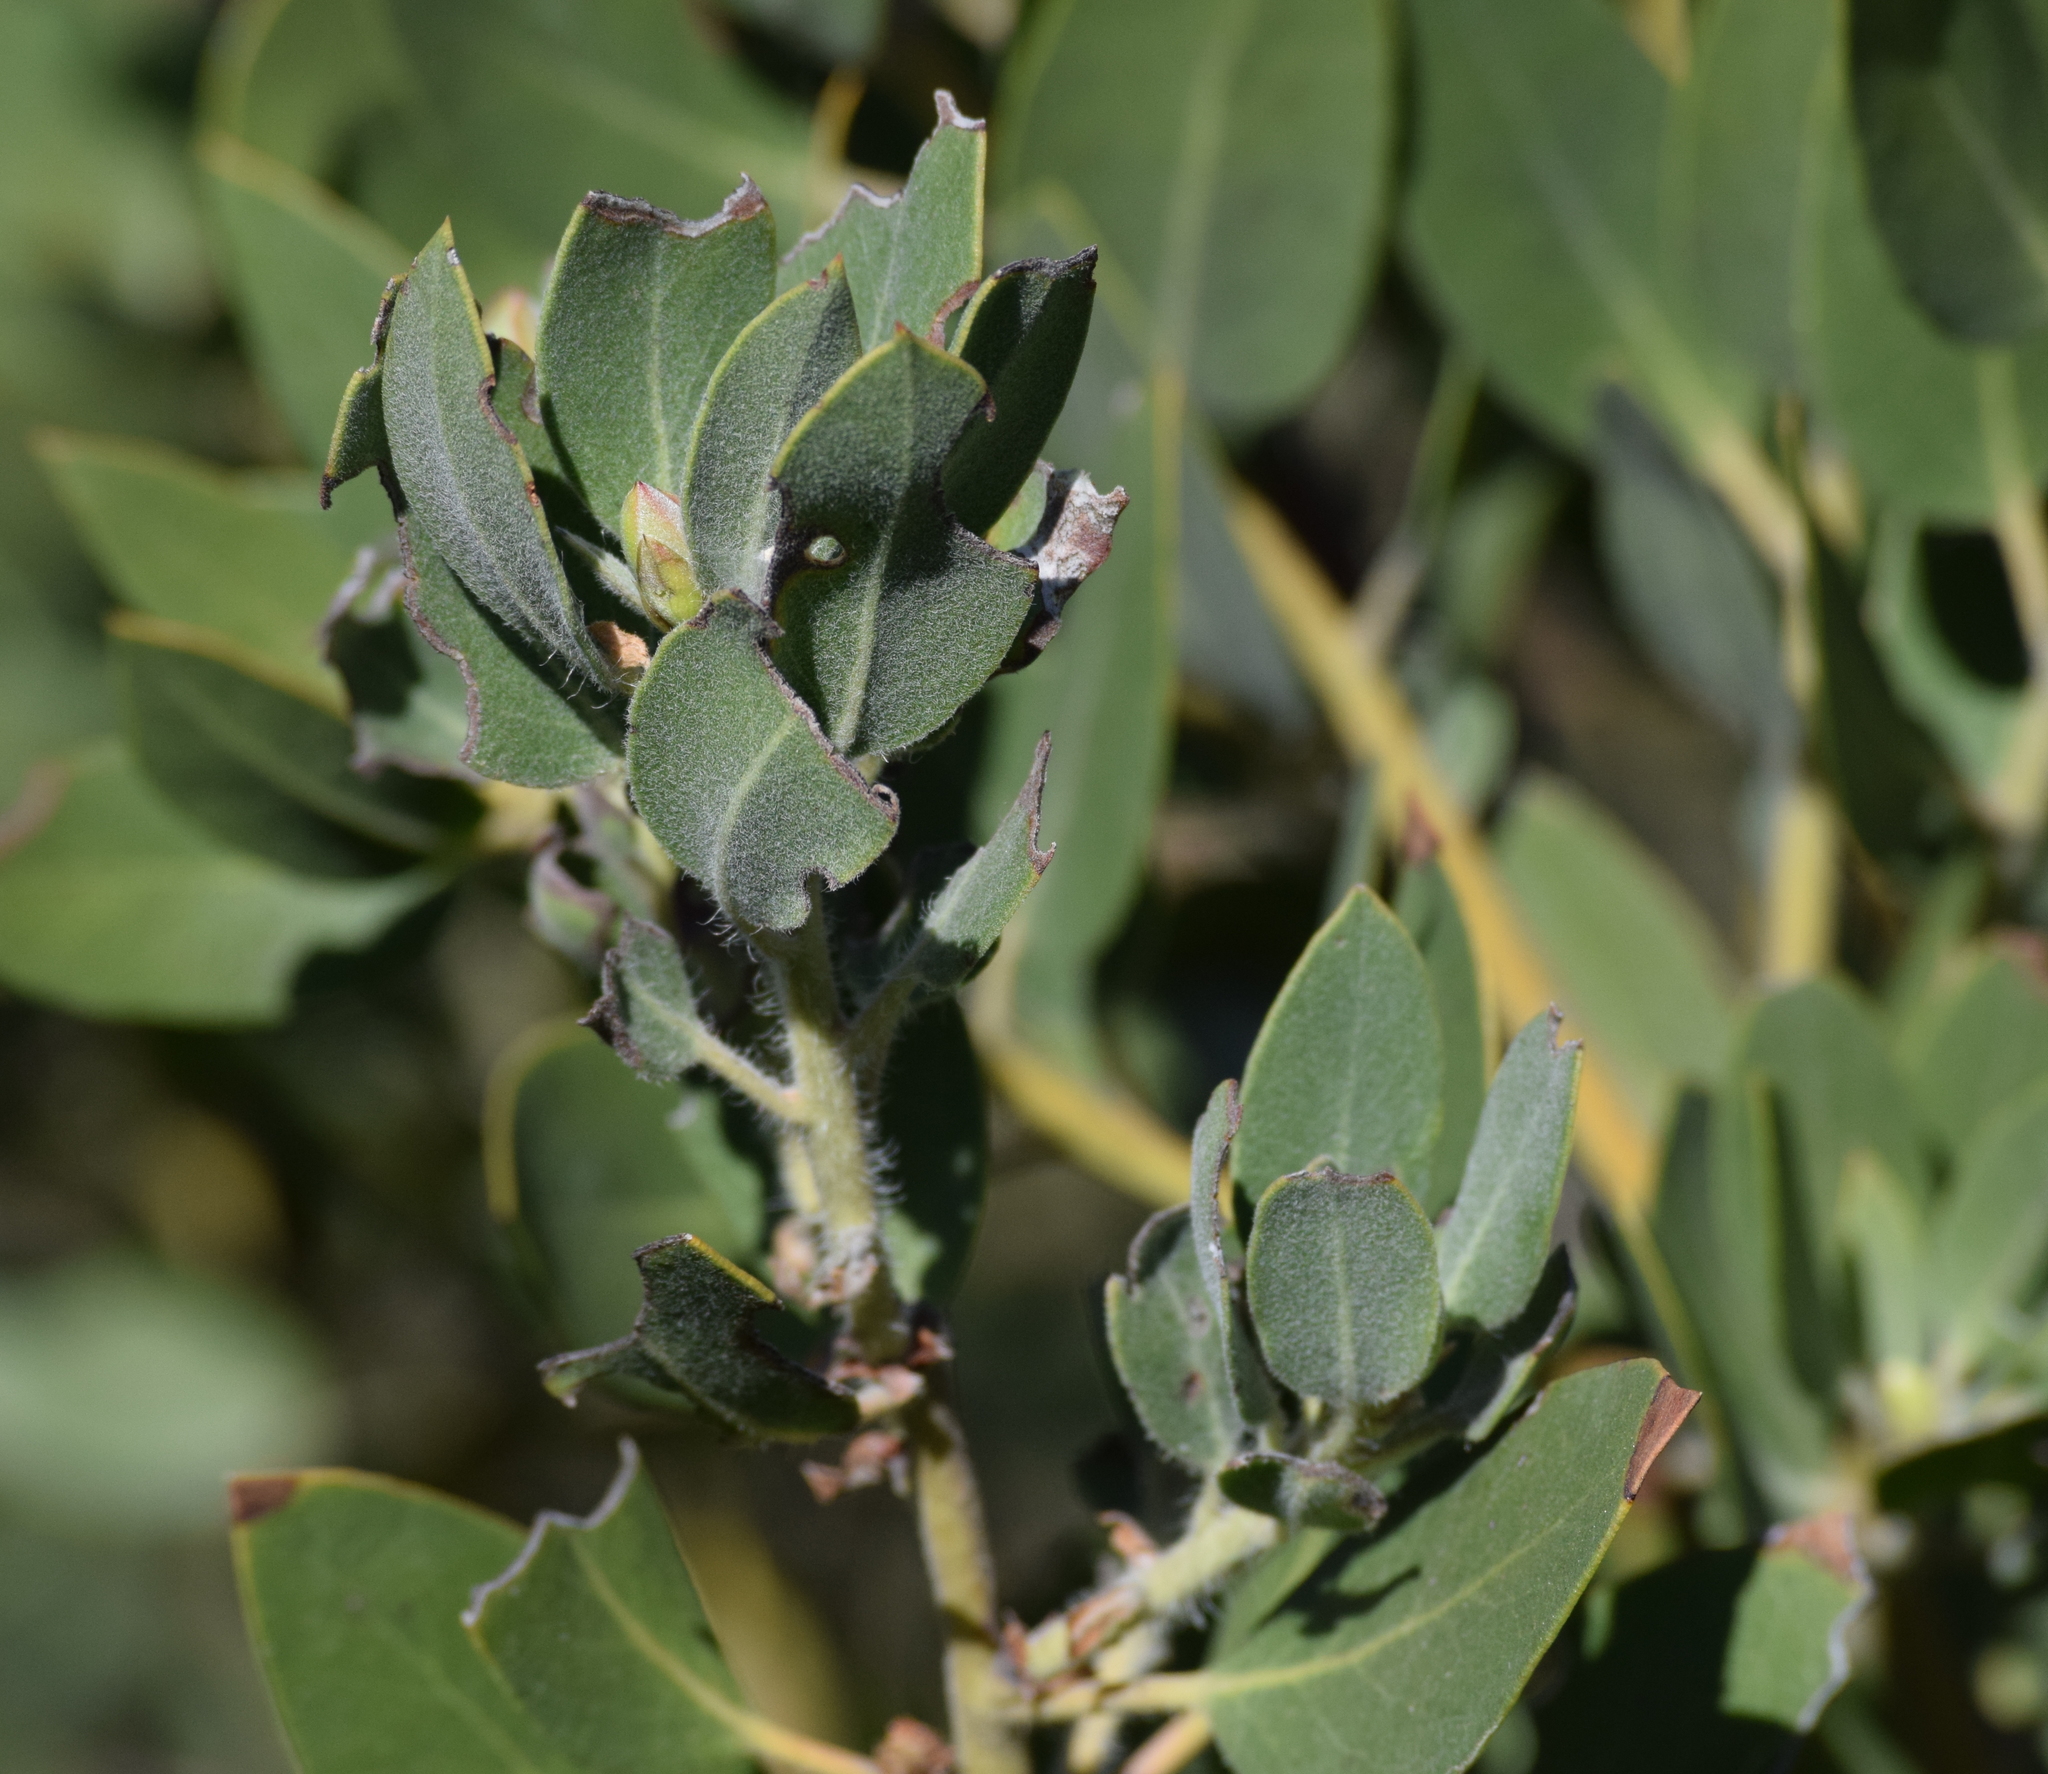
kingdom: Plantae
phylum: Tracheophyta
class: Magnoliopsida
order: Ericales
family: Ericaceae
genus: Arctostaphylos
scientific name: Arctostaphylos glandulosa
